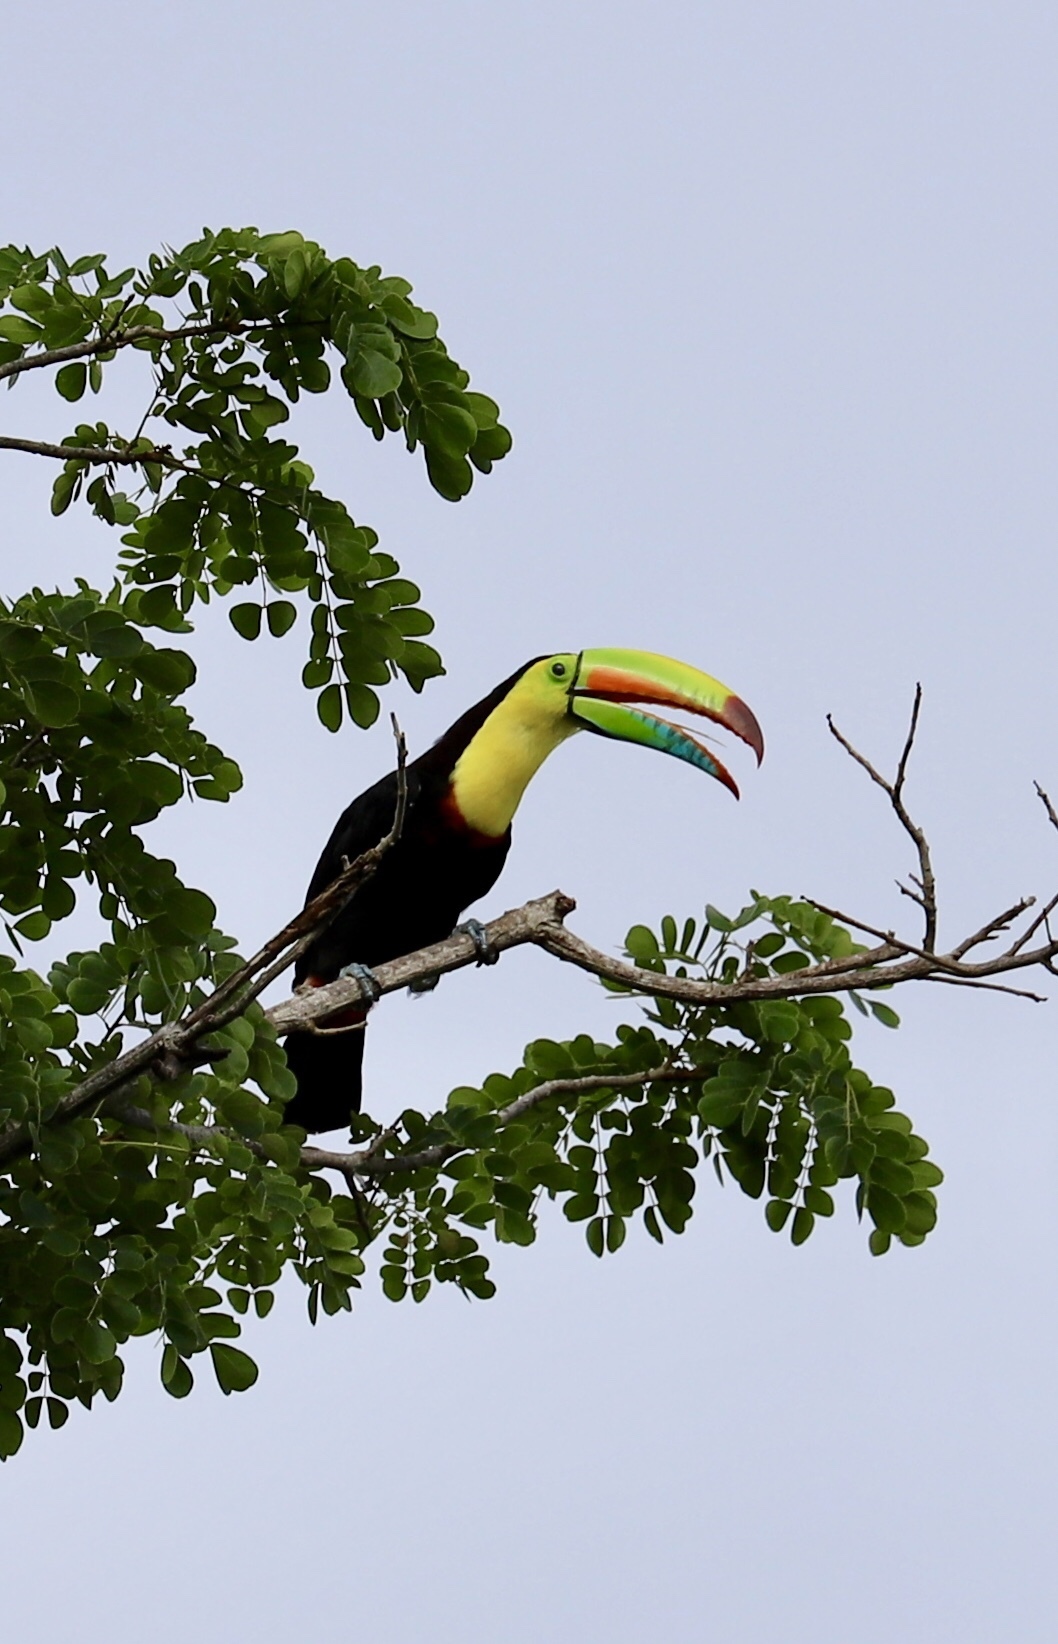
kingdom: Animalia
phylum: Chordata
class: Aves
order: Piciformes
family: Ramphastidae
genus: Ramphastos
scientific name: Ramphastos sulfuratus
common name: Keel-billed toucan
